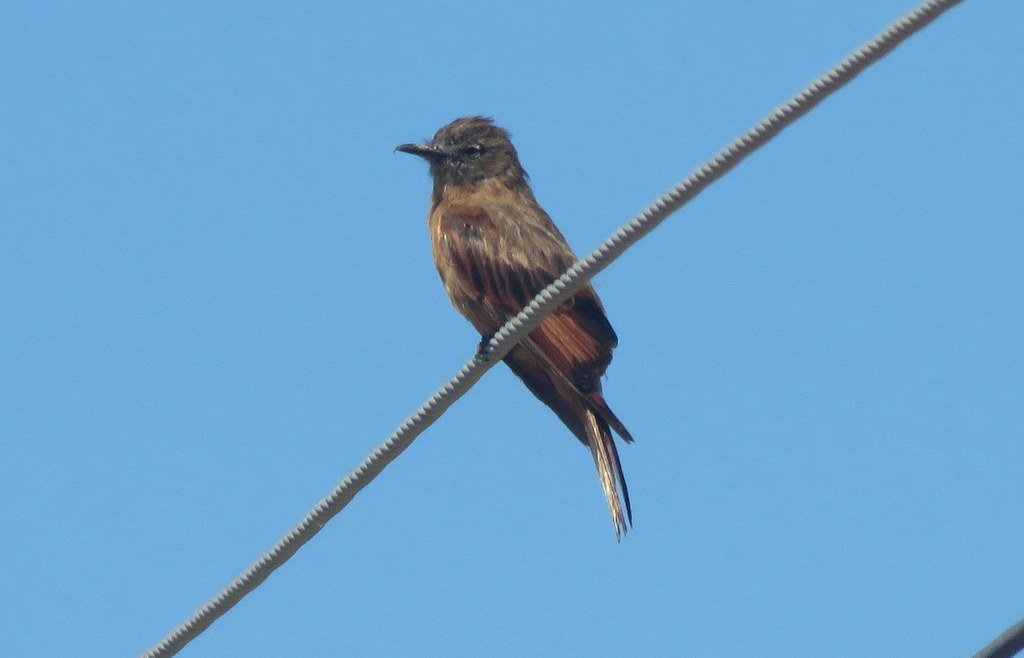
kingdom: Animalia
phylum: Chordata
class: Aves
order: Passeriformes
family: Tyrannidae
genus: Hirundinea
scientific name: Hirundinea ferruginea
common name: Cliff flycatcher
